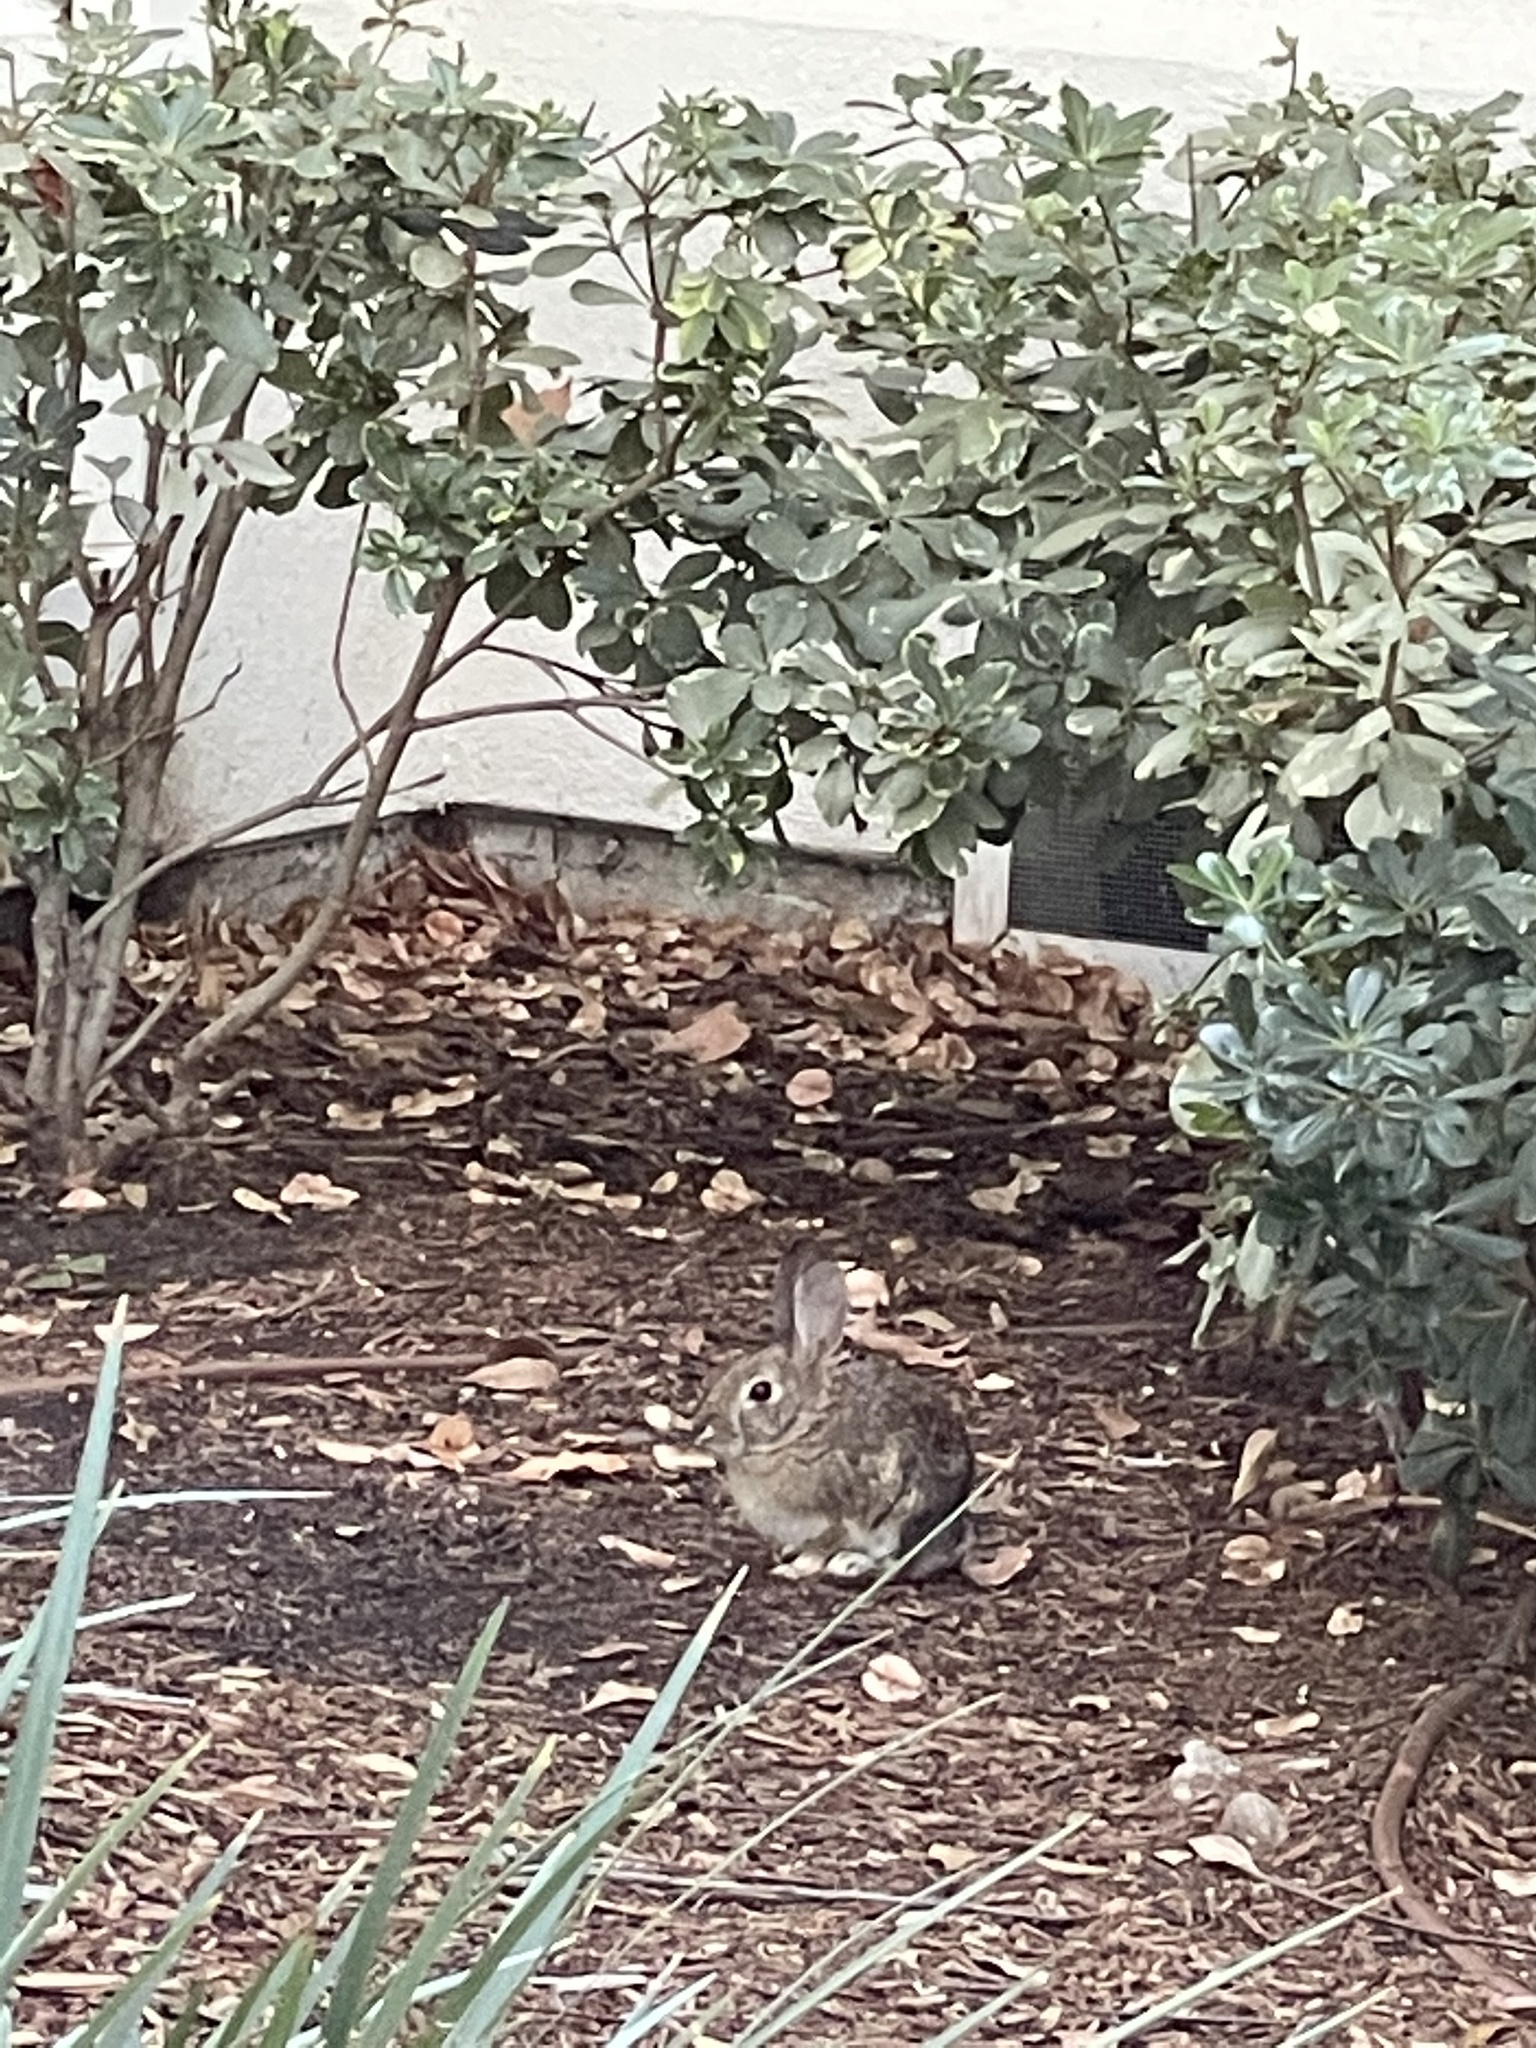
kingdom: Animalia
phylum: Chordata
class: Mammalia
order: Lagomorpha
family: Leporidae
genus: Sylvilagus
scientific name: Sylvilagus audubonii
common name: Desert cottontail
